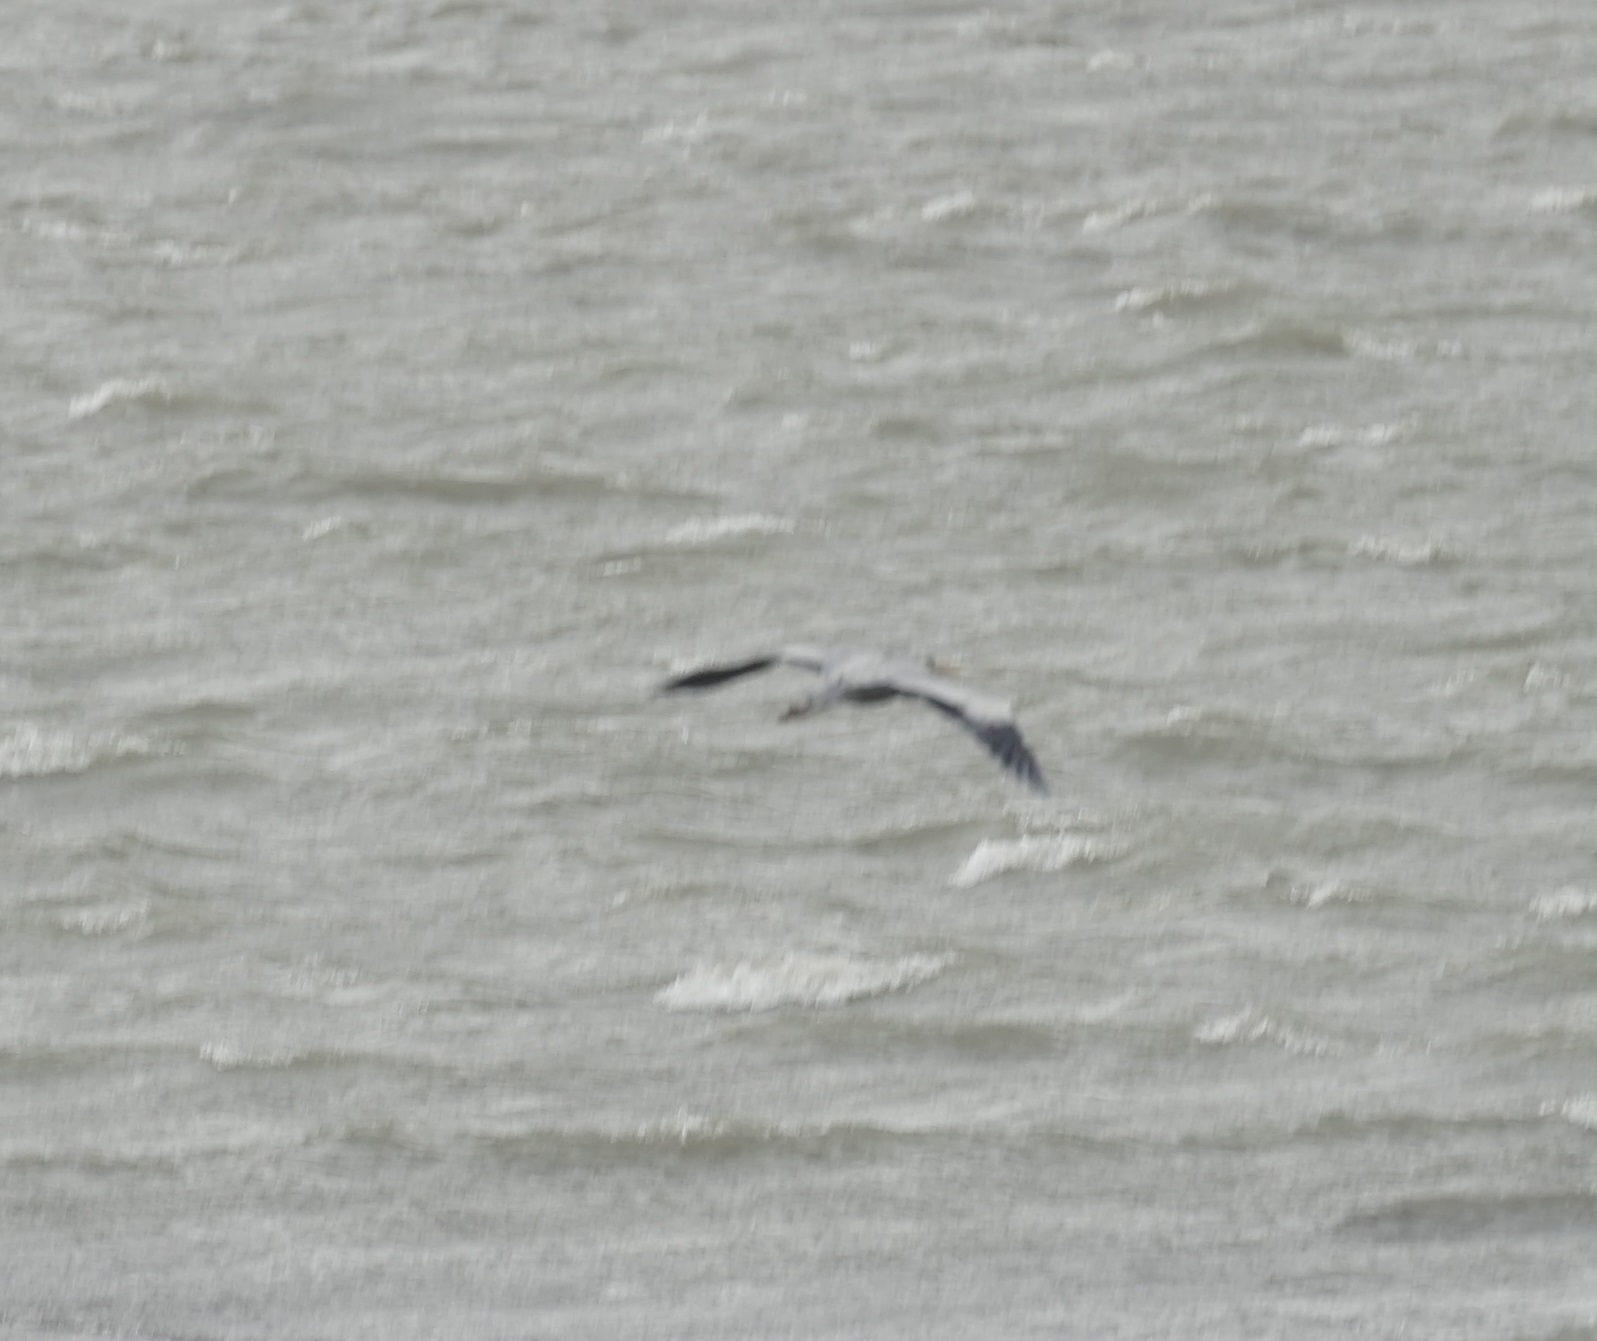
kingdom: Animalia
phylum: Chordata
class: Aves
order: Pelecaniformes
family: Ardeidae
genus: Ardea
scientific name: Ardea cinerea
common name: Grey heron
